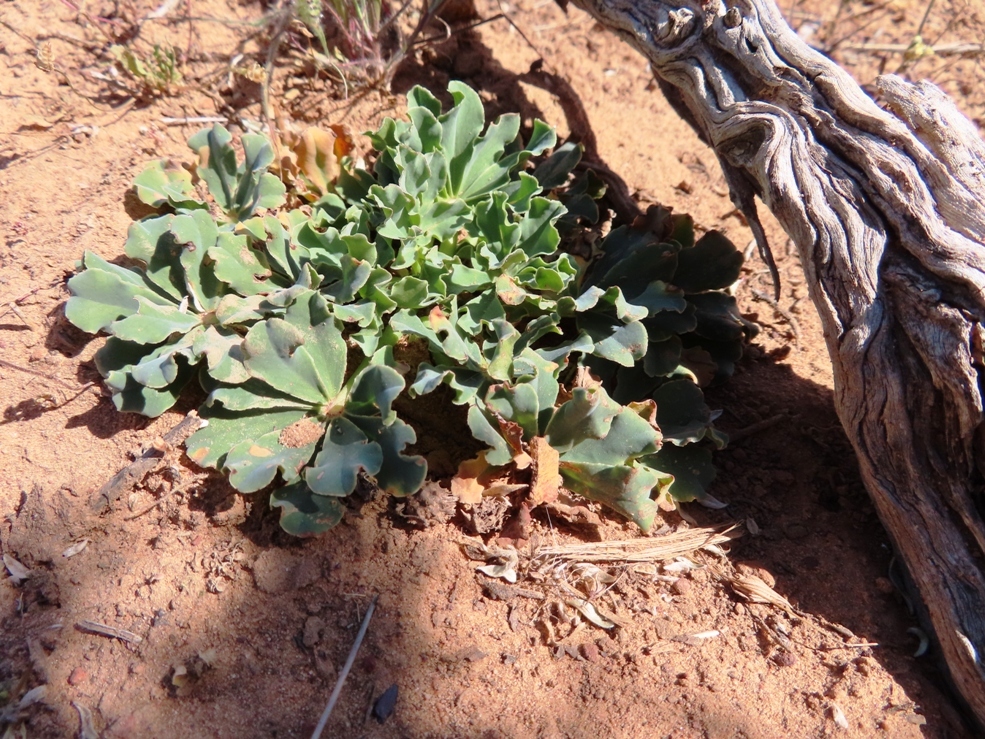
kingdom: Plantae
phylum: Tracheophyta
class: Magnoliopsida
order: Oxalidales
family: Oxalidaceae
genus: Oxalis
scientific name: Oxalis flava
